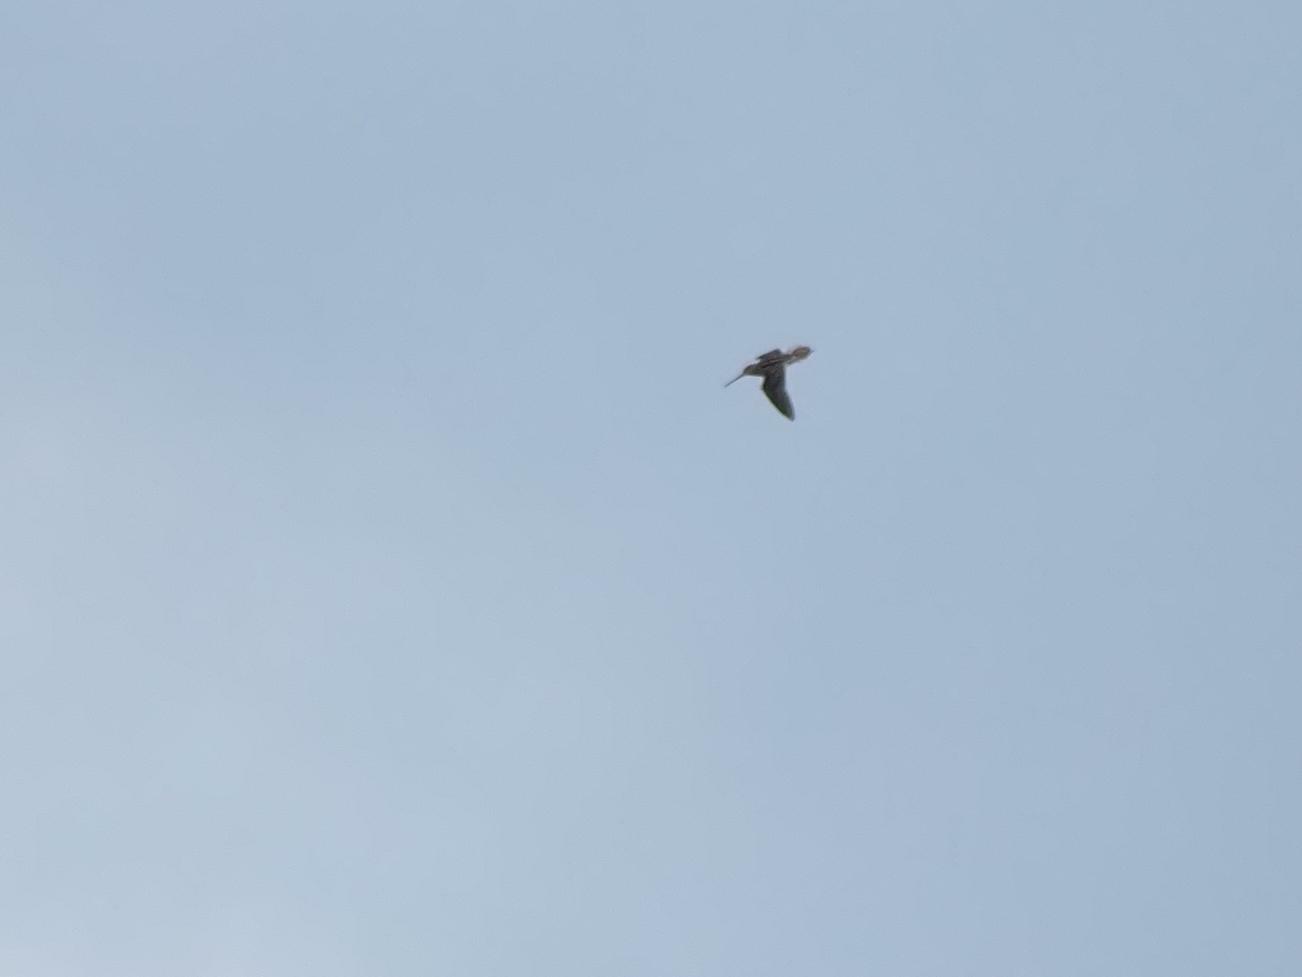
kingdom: Animalia
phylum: Chordata
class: Aves
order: Charadriiformes
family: Scolopacidae
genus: Gallinago
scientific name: Gallinago gallinago
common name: Common snipe
